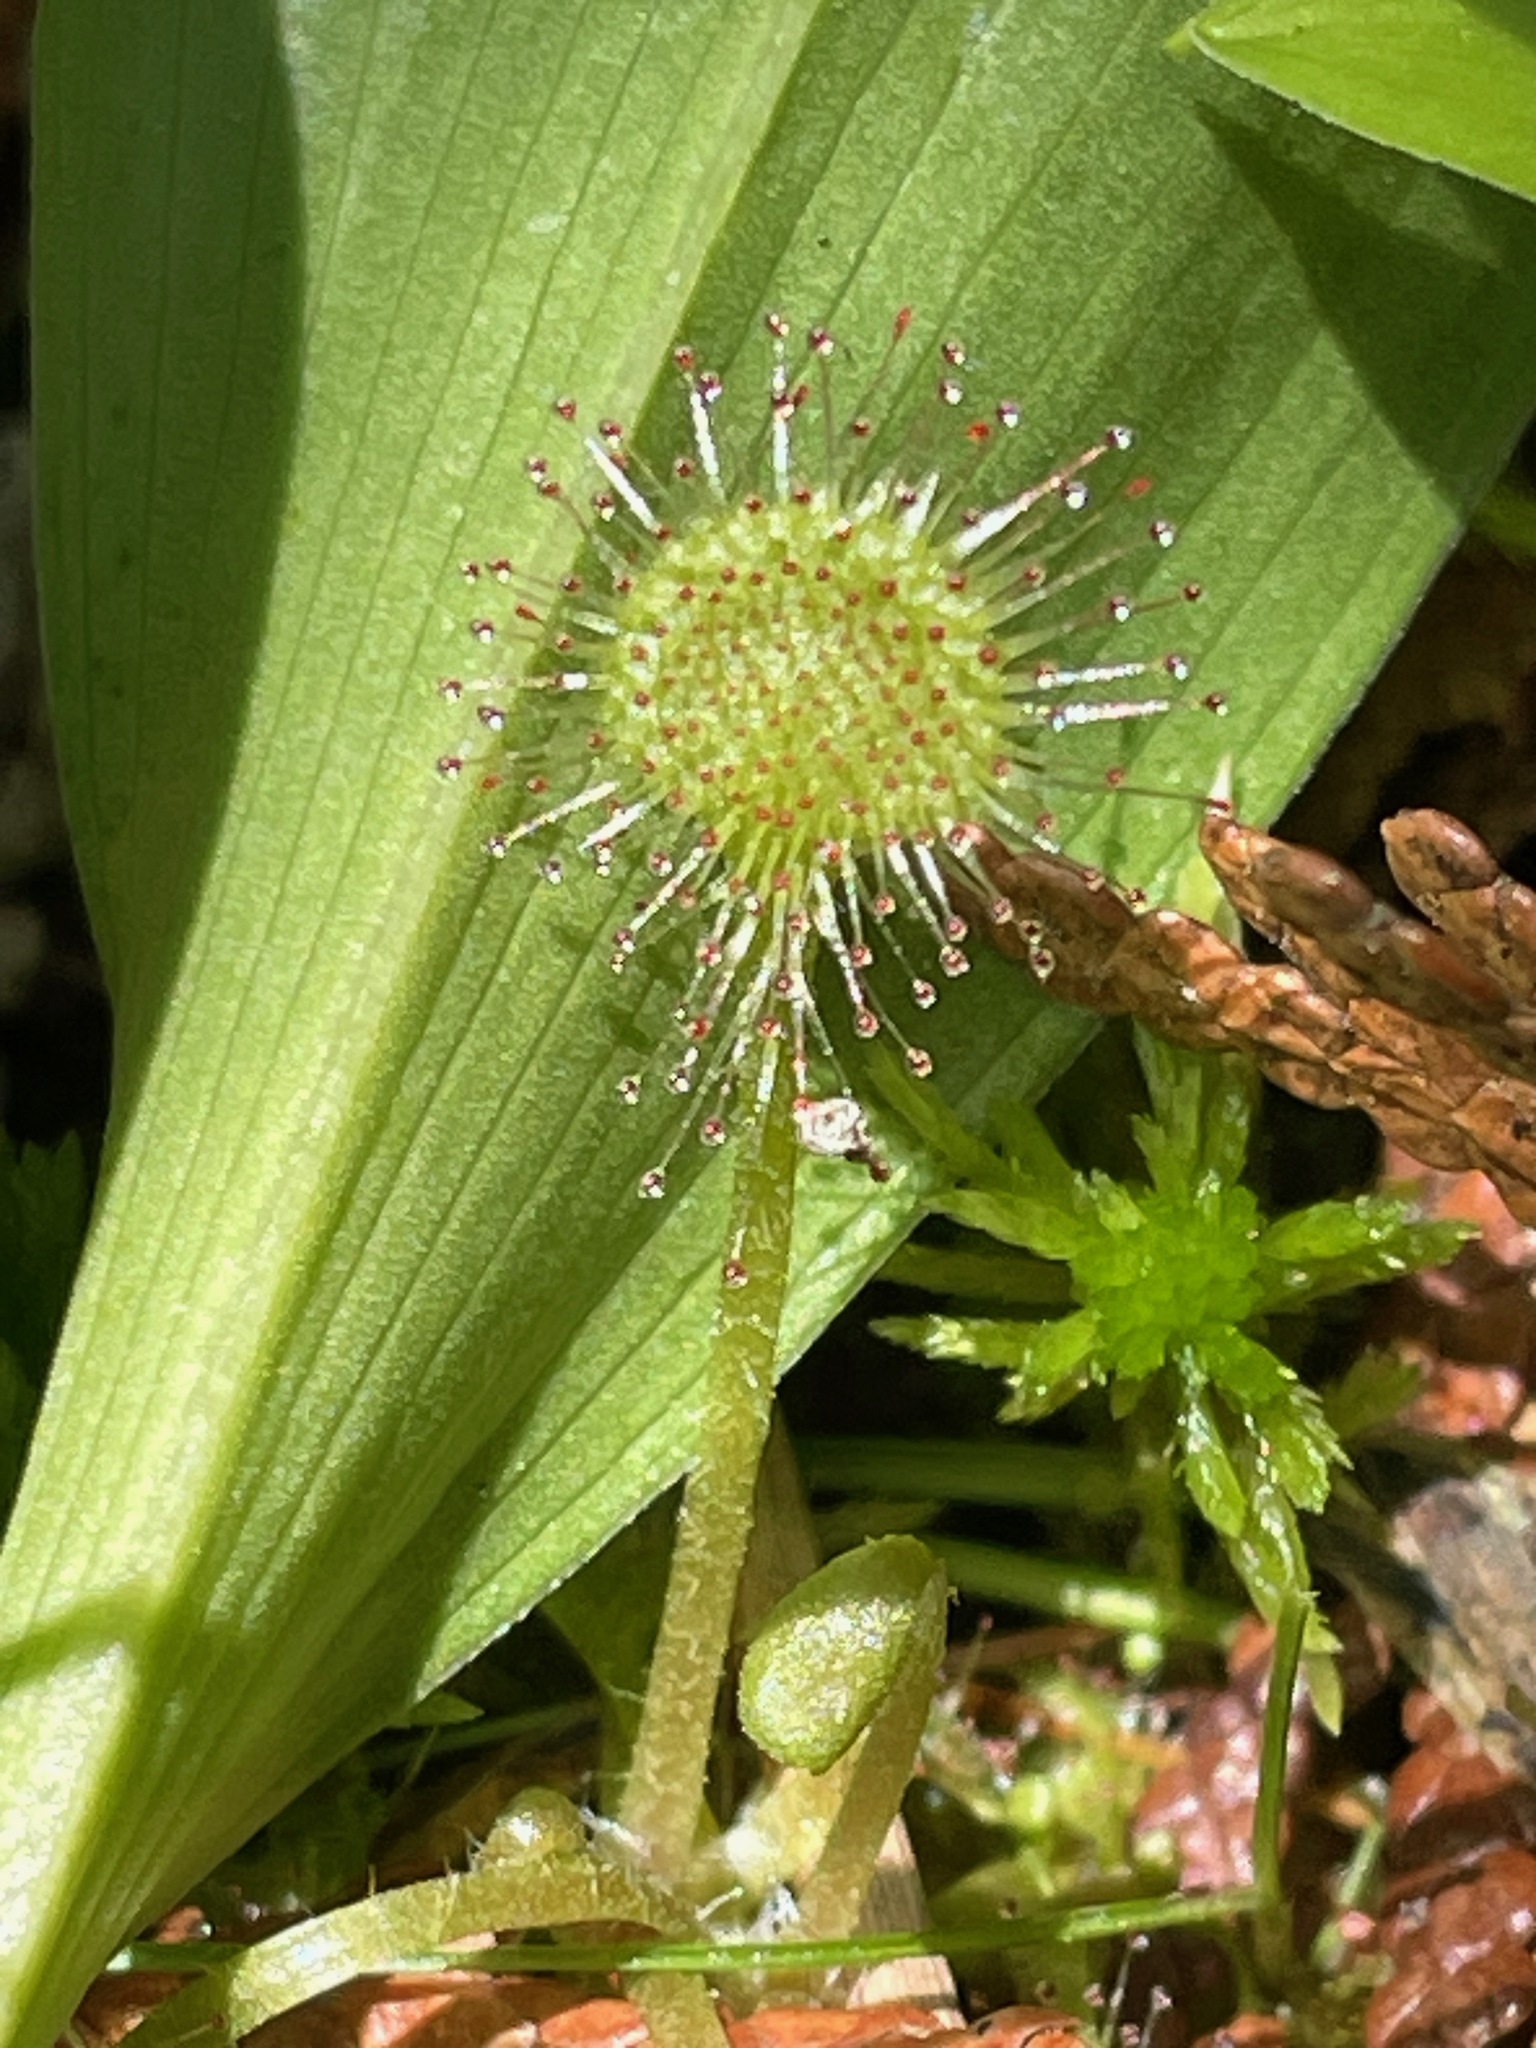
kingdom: Plantae
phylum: Tracheophyta
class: Magnoliopsida
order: Caryophyllales
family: Droseraceae
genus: Drosera
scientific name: Drosera rotundifolia
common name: Round-leaved sundew
